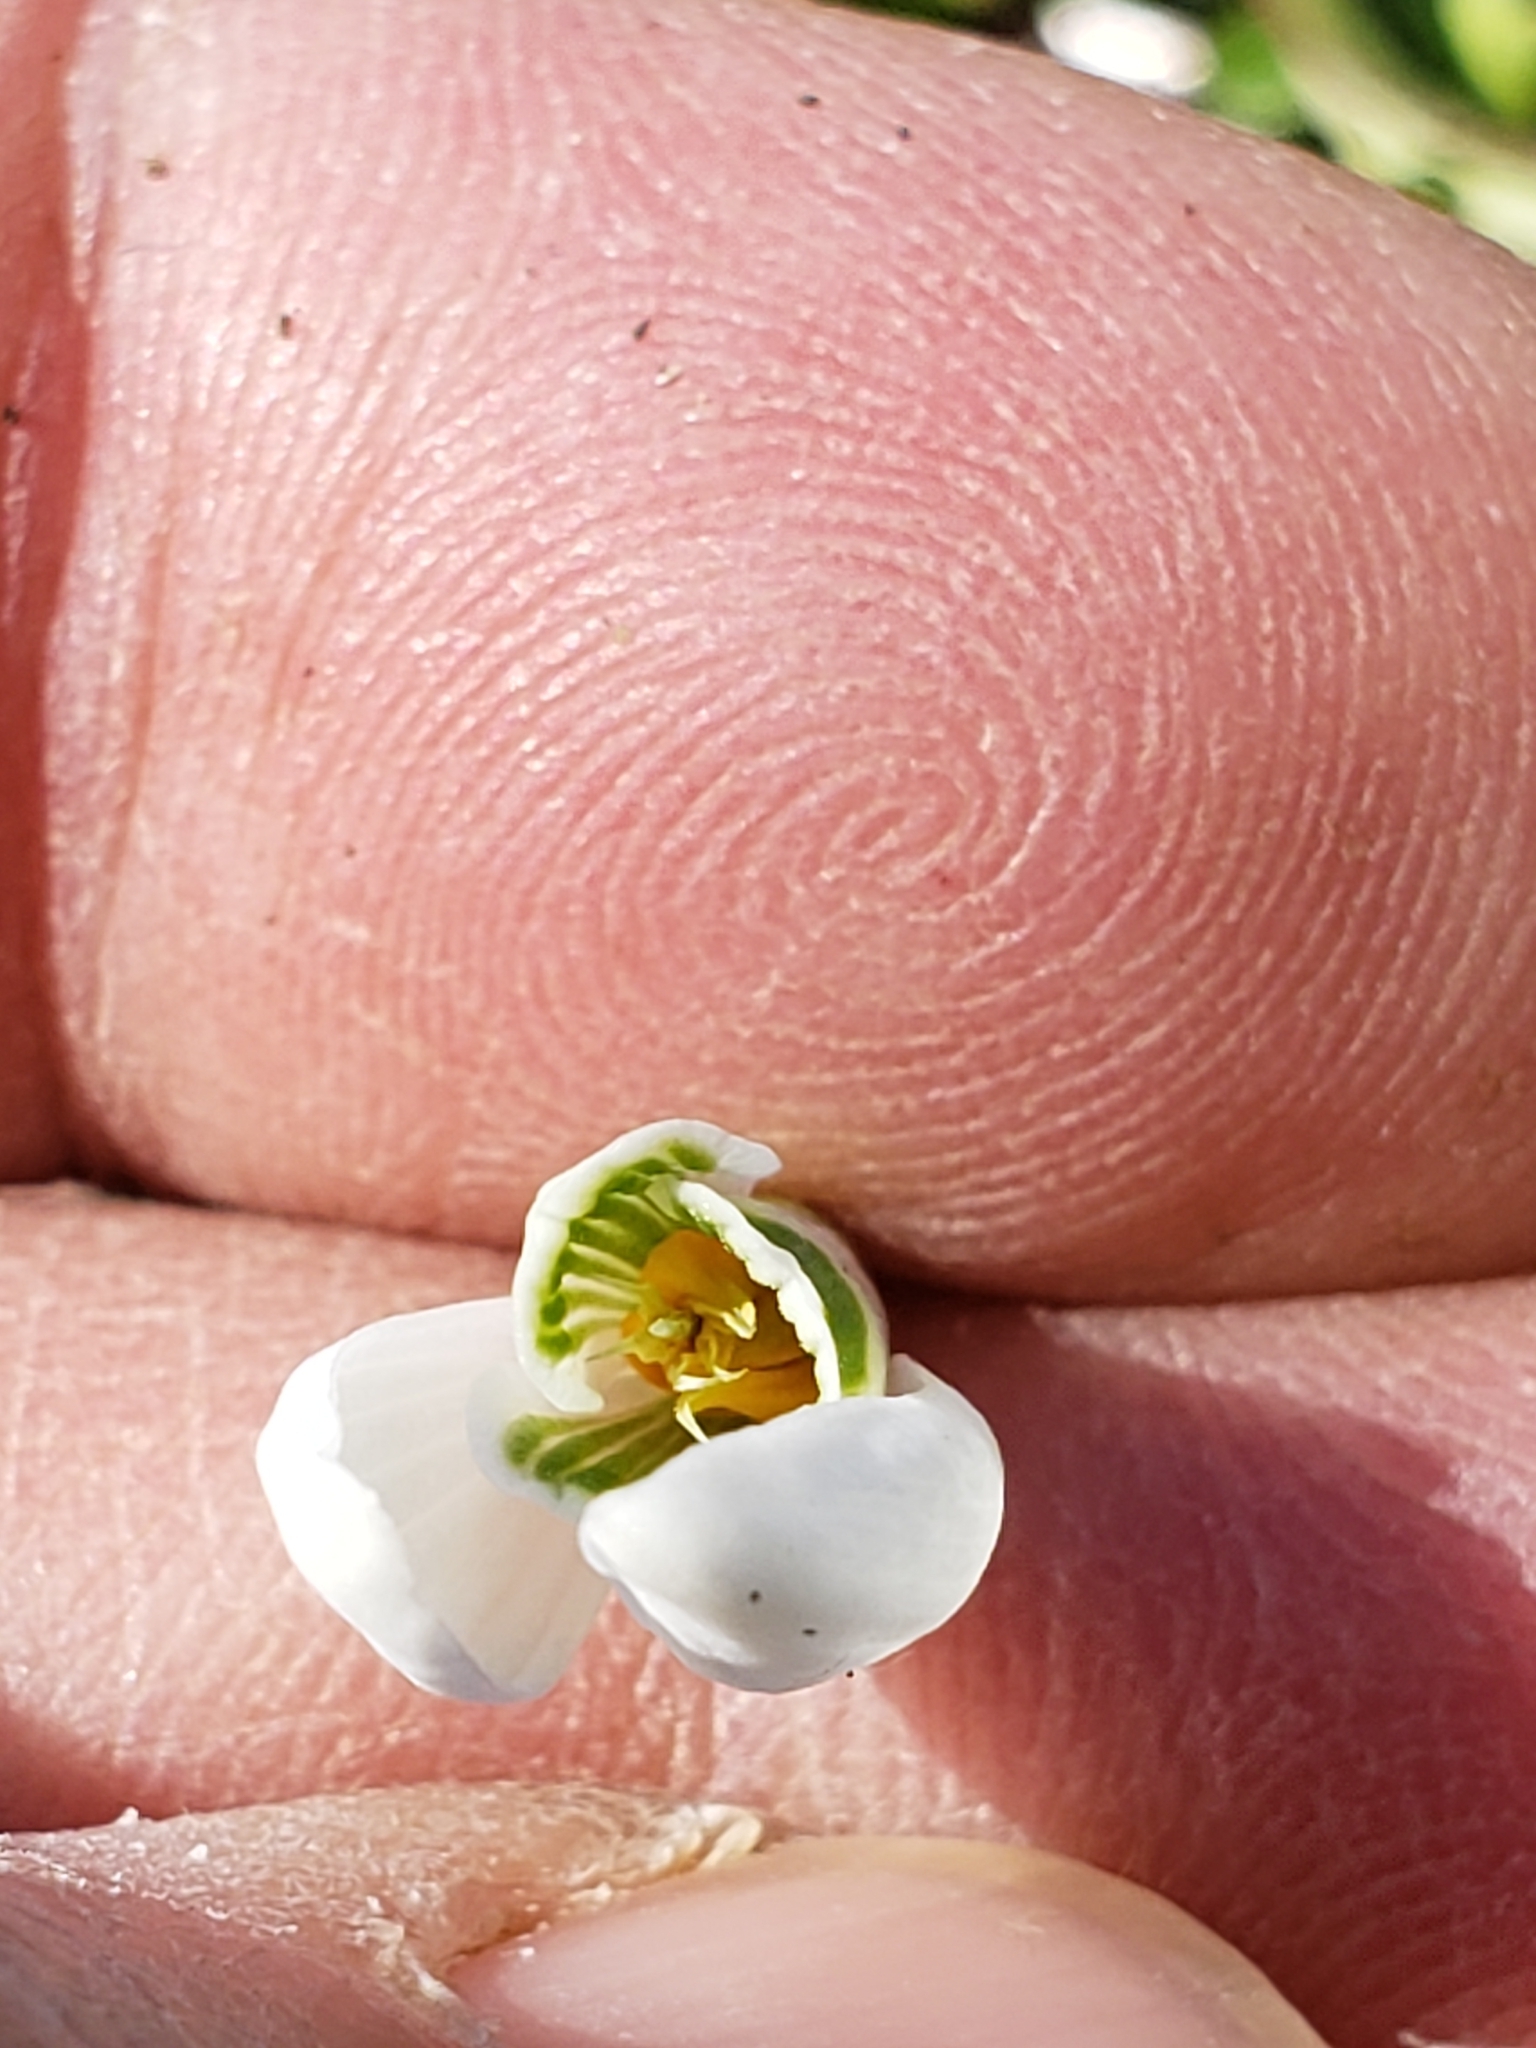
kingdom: Plantae
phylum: Tracheophyta
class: Liliopsida
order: Asparagales
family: Amaryllidaceae
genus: Galanthus
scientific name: Galanthus nivalis
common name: Snowdrop
